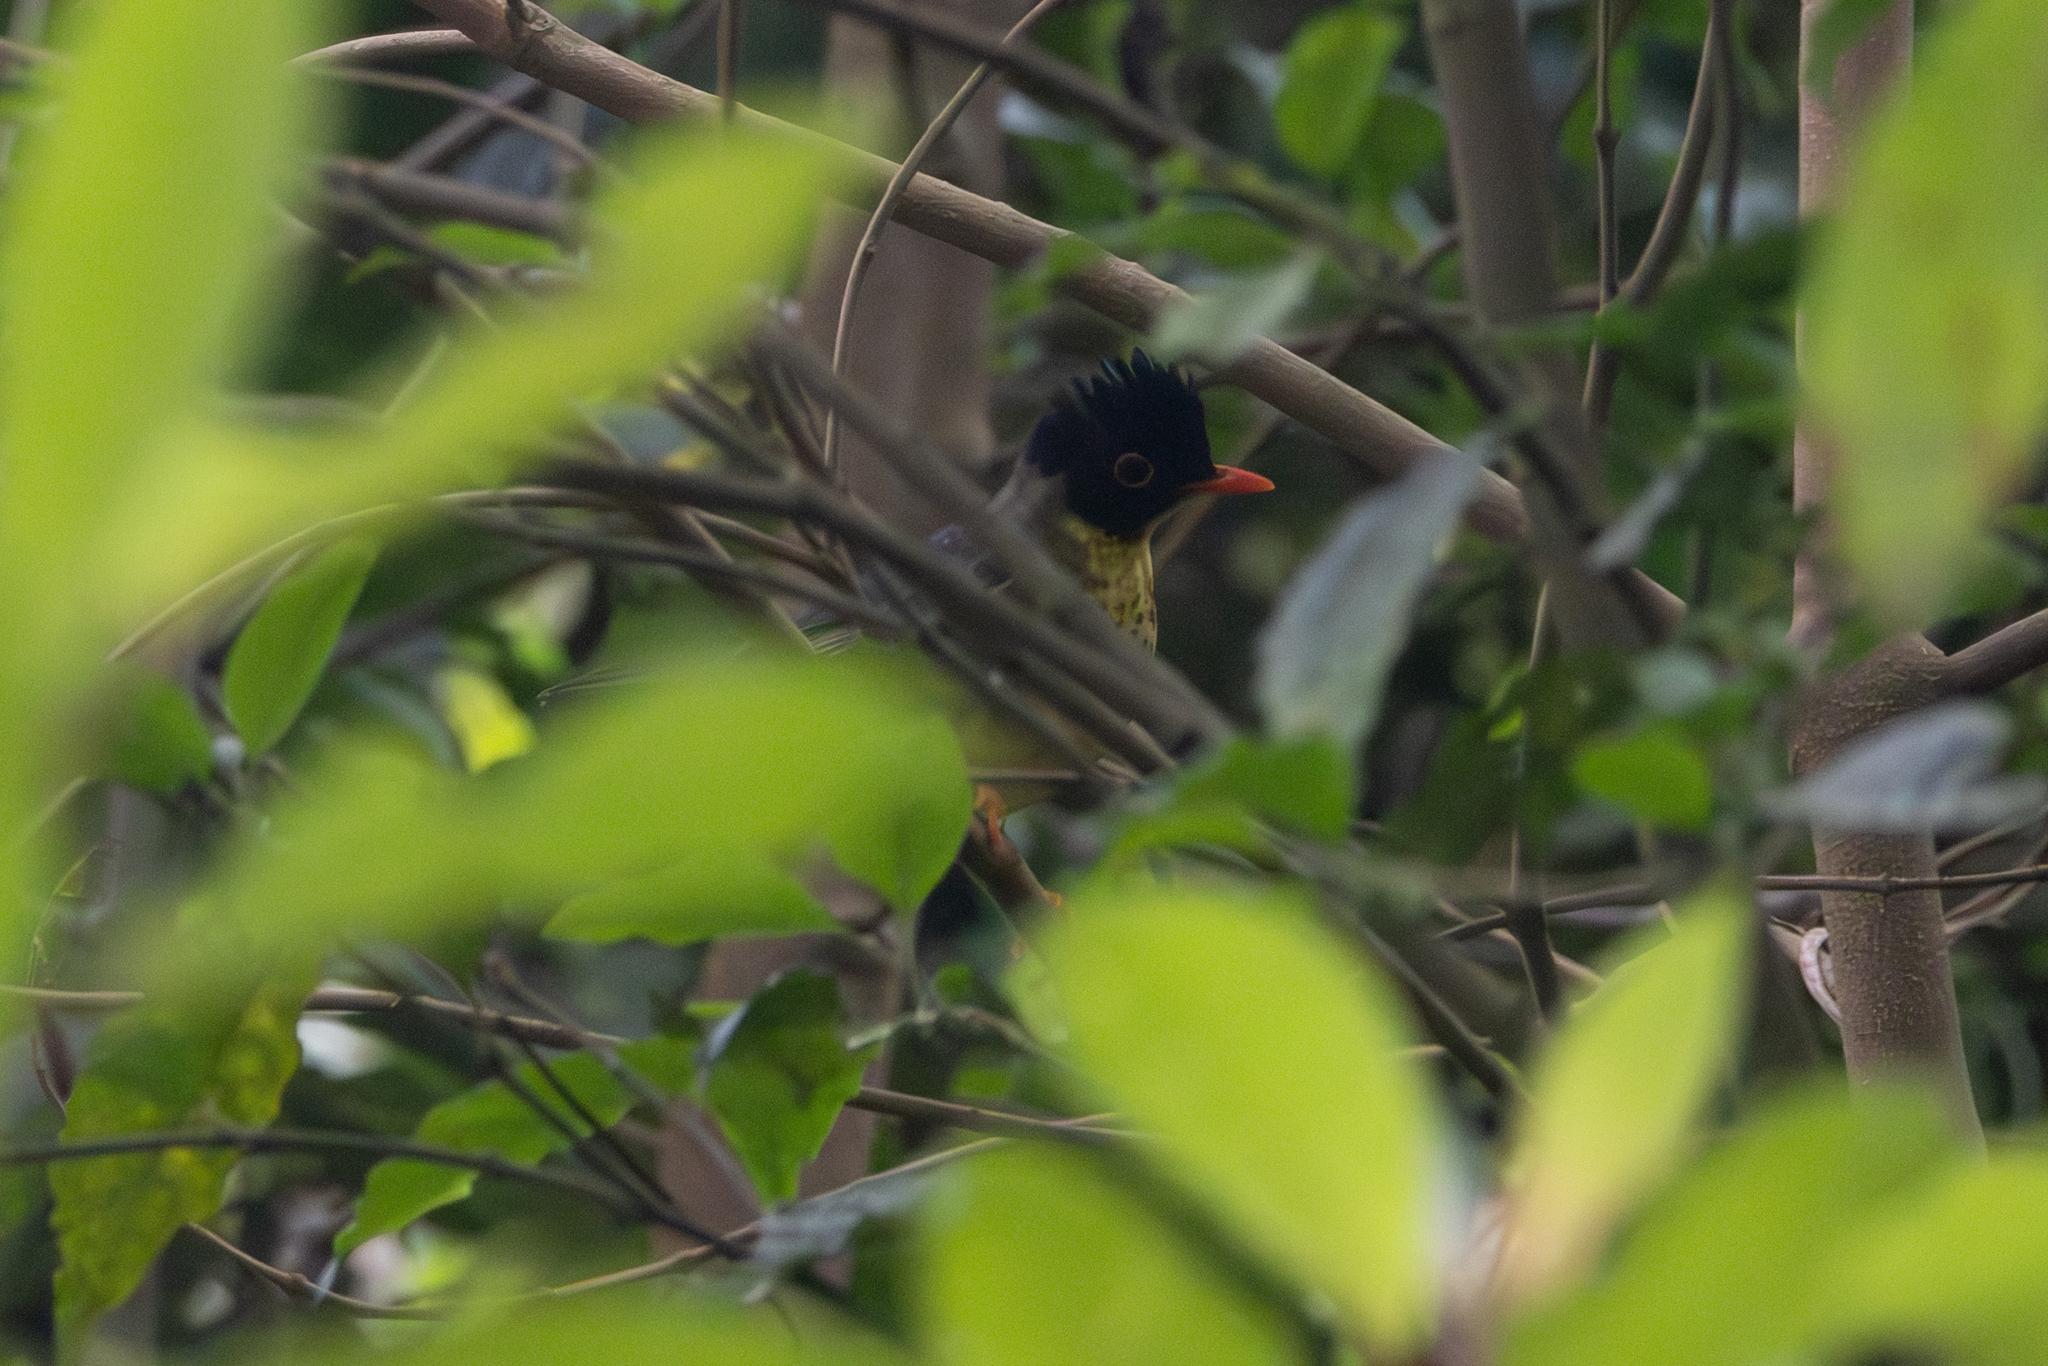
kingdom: Animalia
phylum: Chordata
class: Aves
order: Passeriformes
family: Turdidae
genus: Catharus
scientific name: Catharus dryas
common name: Spotted nightingale-thrush
